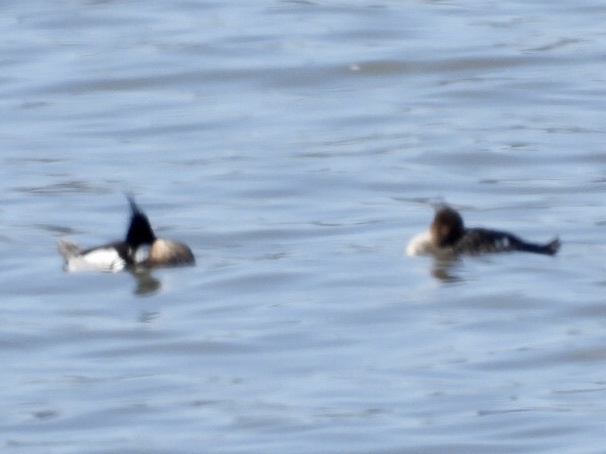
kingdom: Animalia
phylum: Chordata
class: Aves
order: Anseriformes
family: Anatidae
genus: Mergus
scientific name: Mergus serrator
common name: Red-breasted merganser
